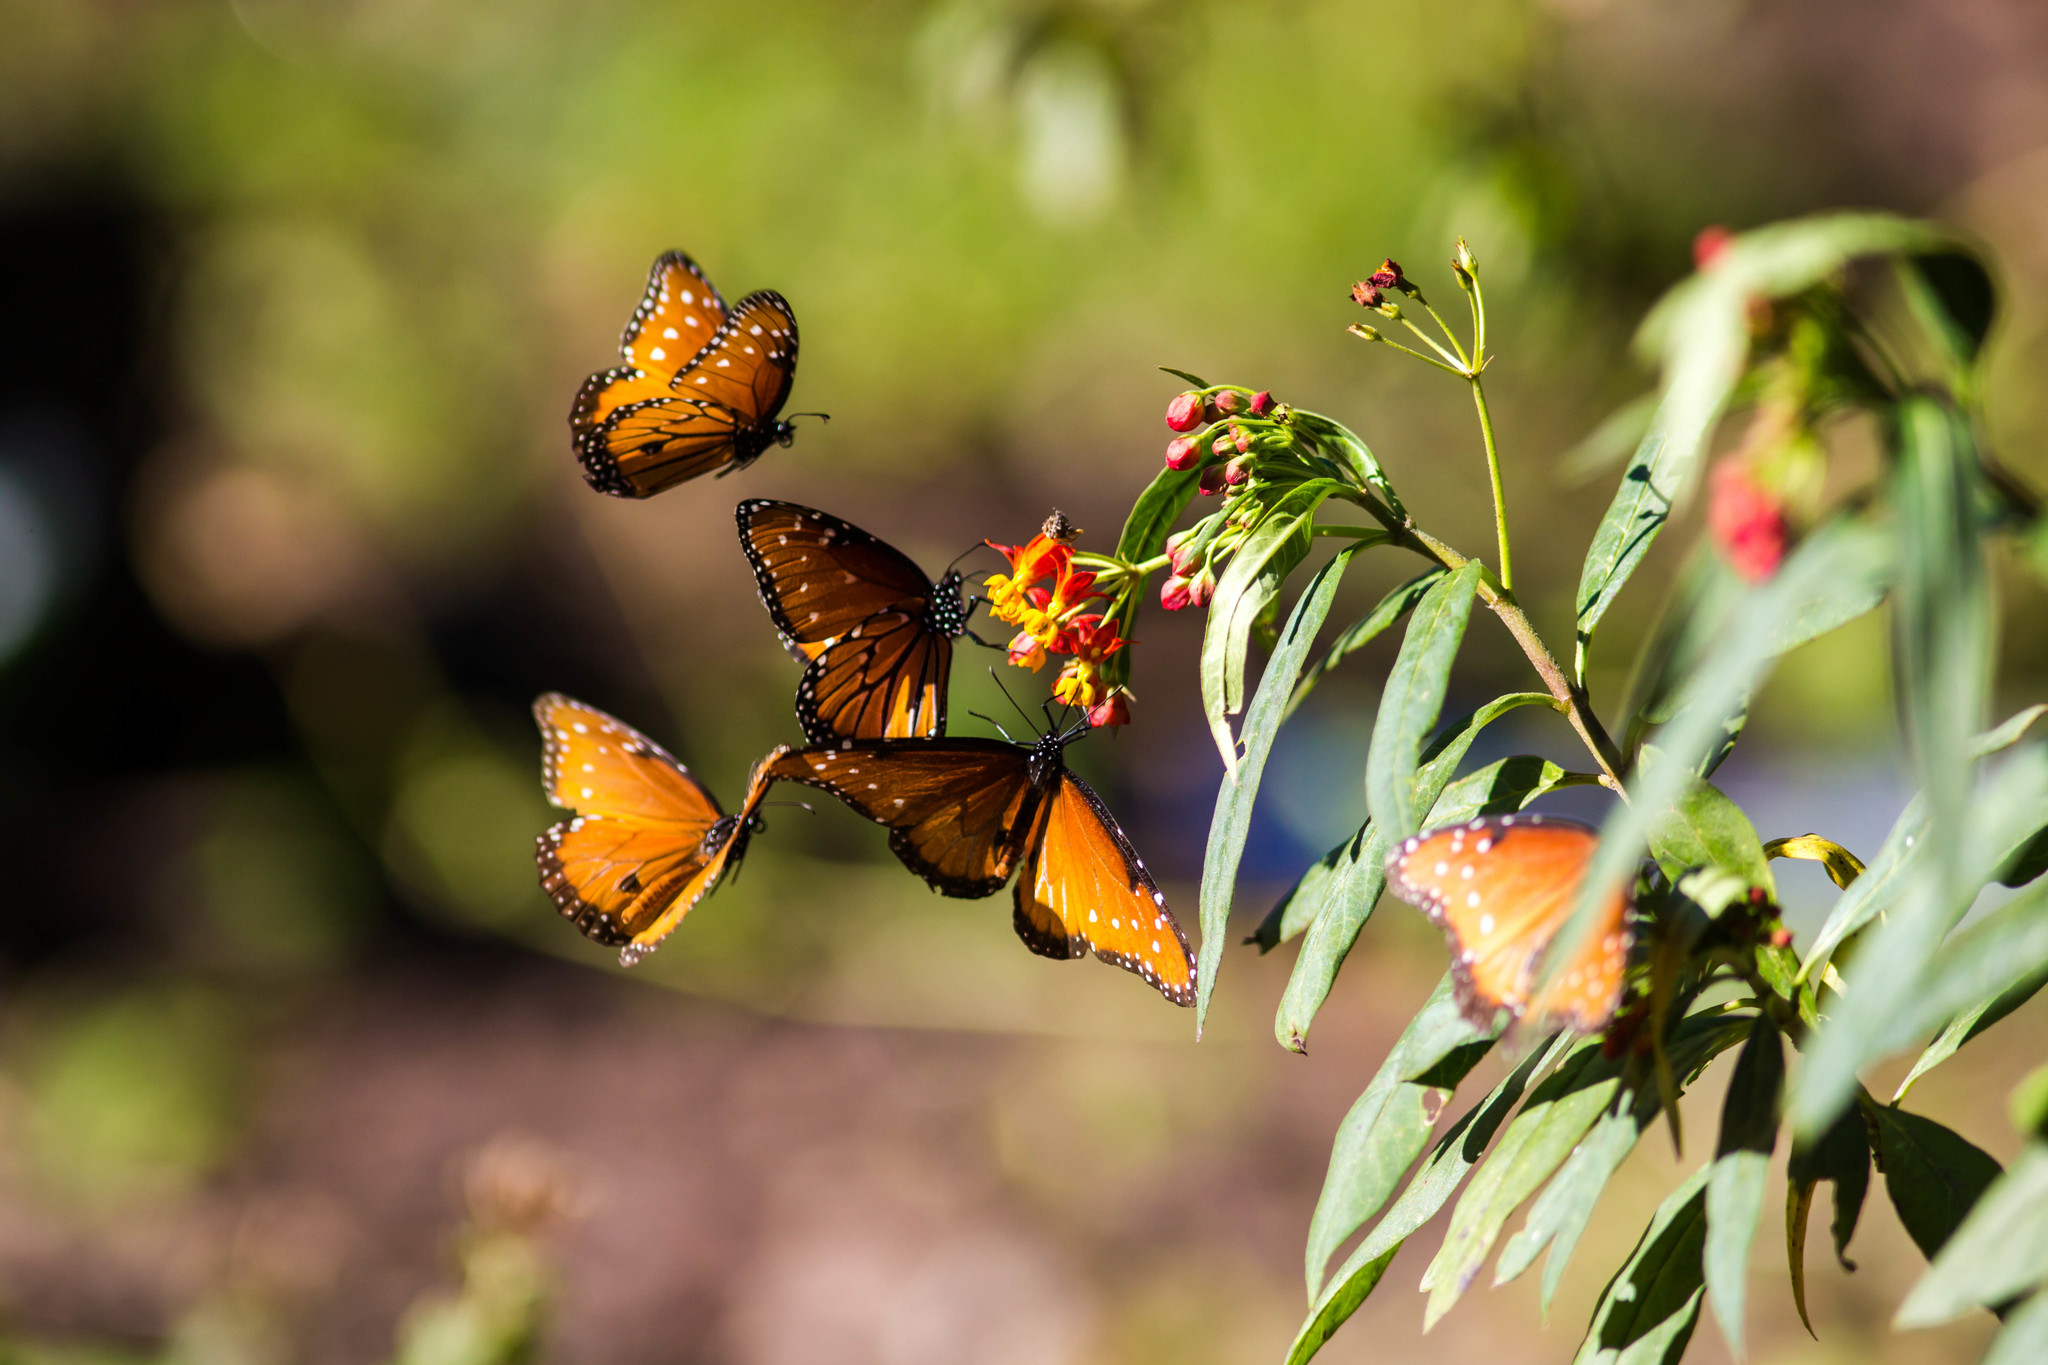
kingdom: Animalia
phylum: Arthropoda
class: Insecta
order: Lepidoptera
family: Nymphalidae
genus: Danaus
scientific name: Danaus gilippus
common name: Queen
